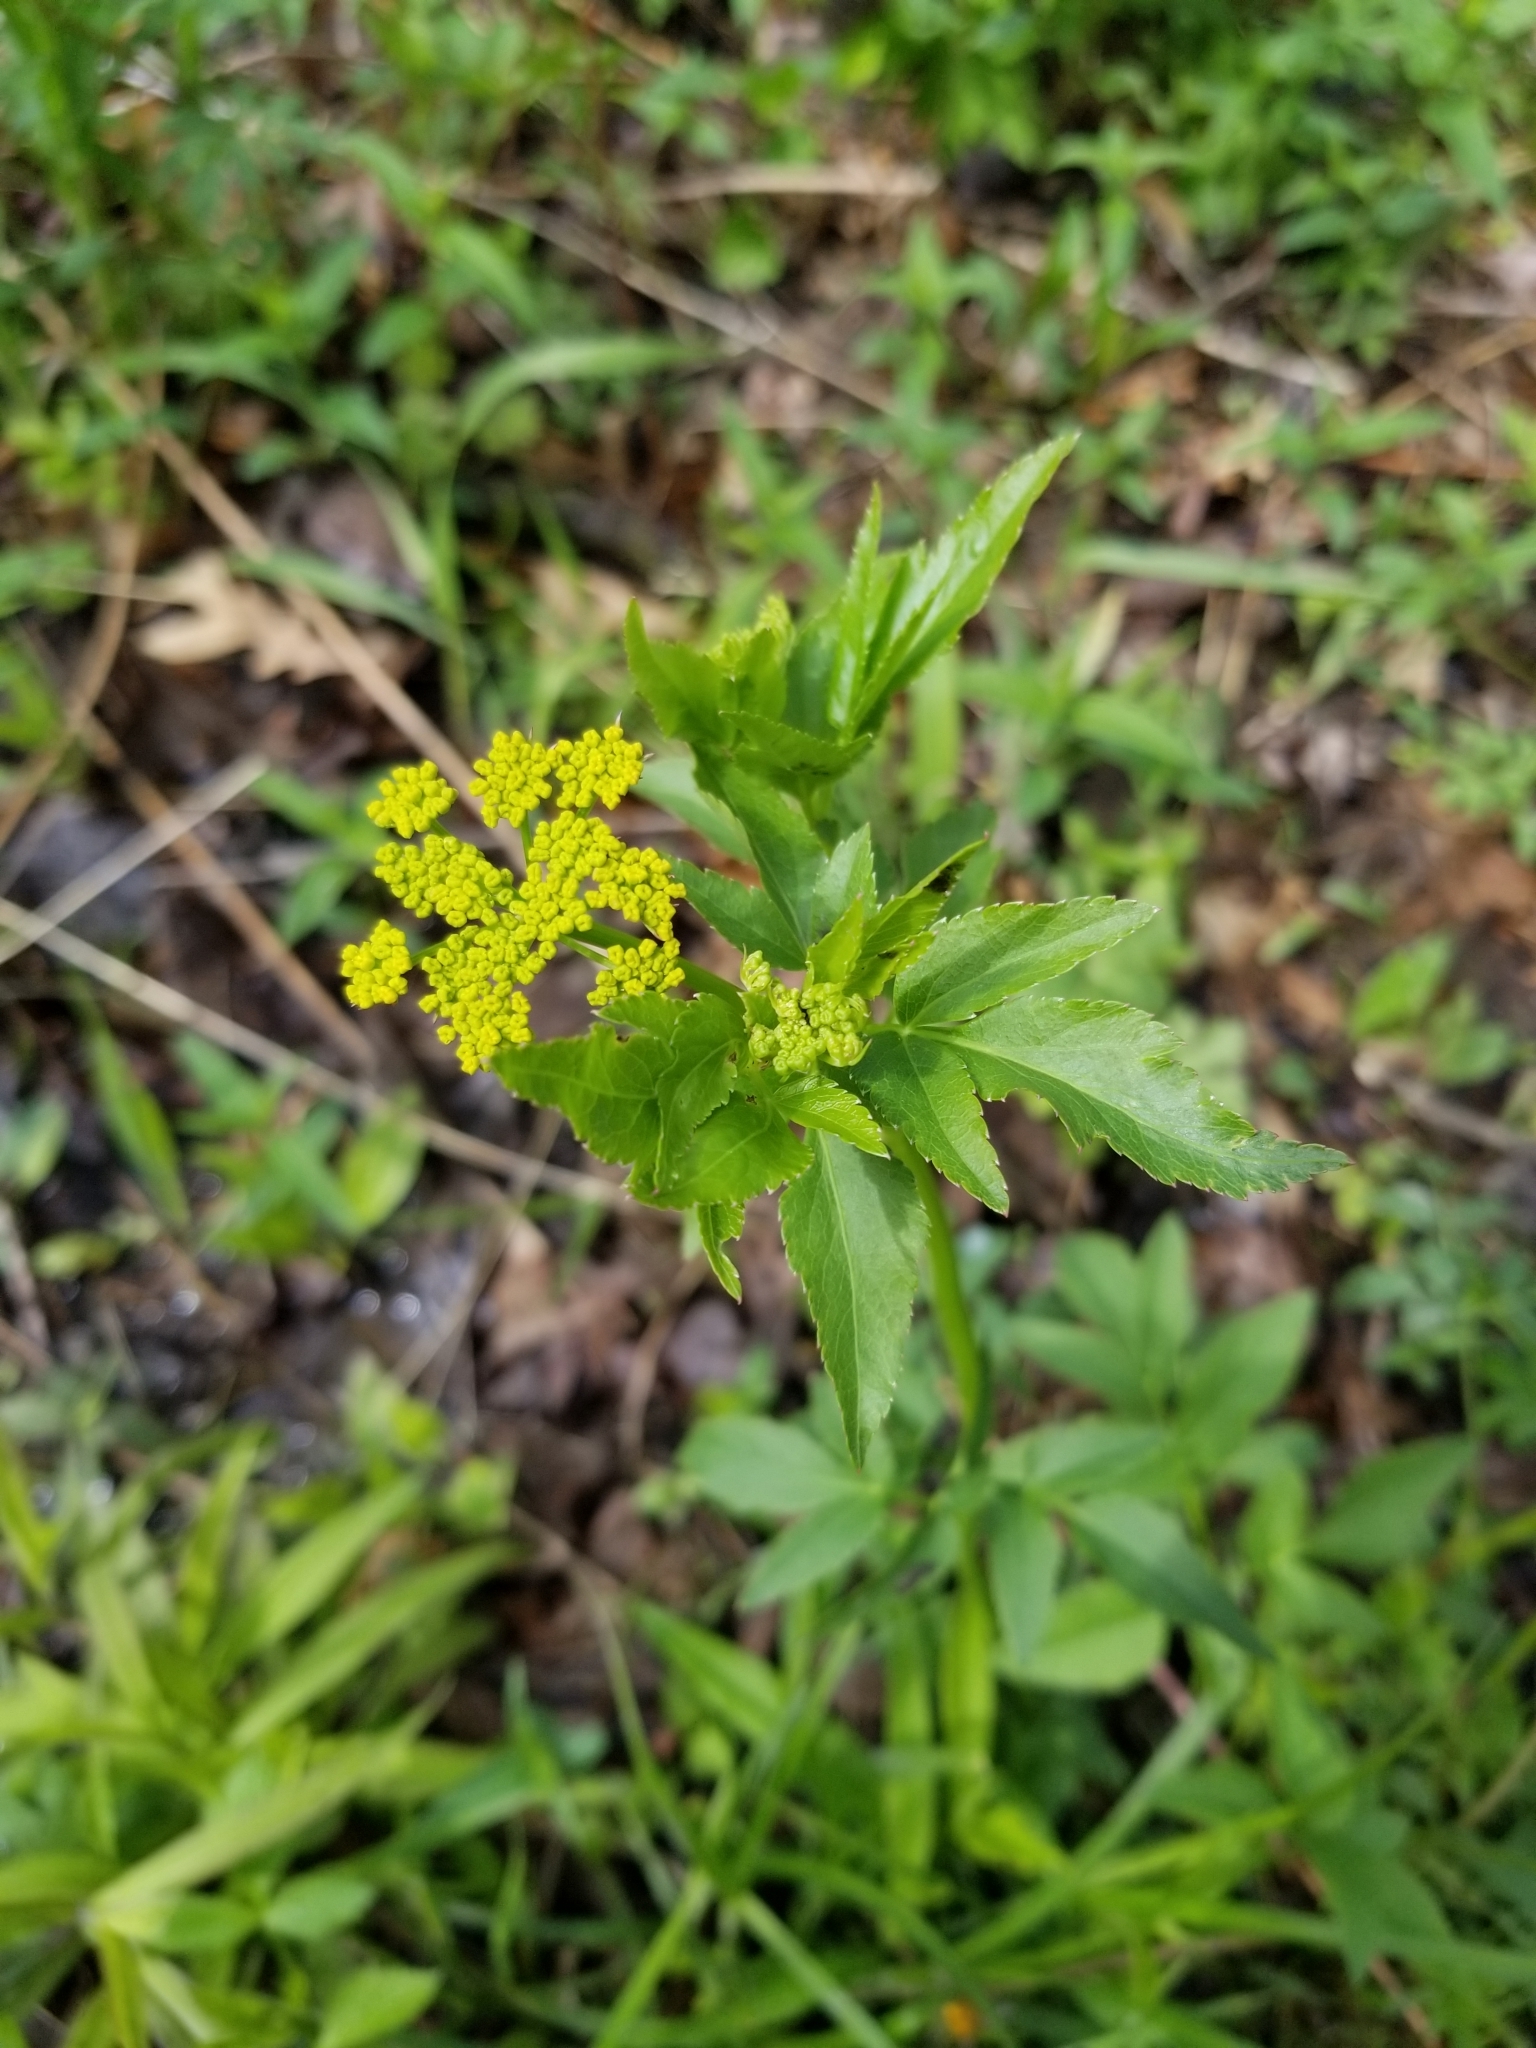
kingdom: Plantae
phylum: Tracheophyta
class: Magnoliopsida
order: Apiales
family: Apiaceae
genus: Zizia
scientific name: Zizia aurea
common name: Golden alexanders
